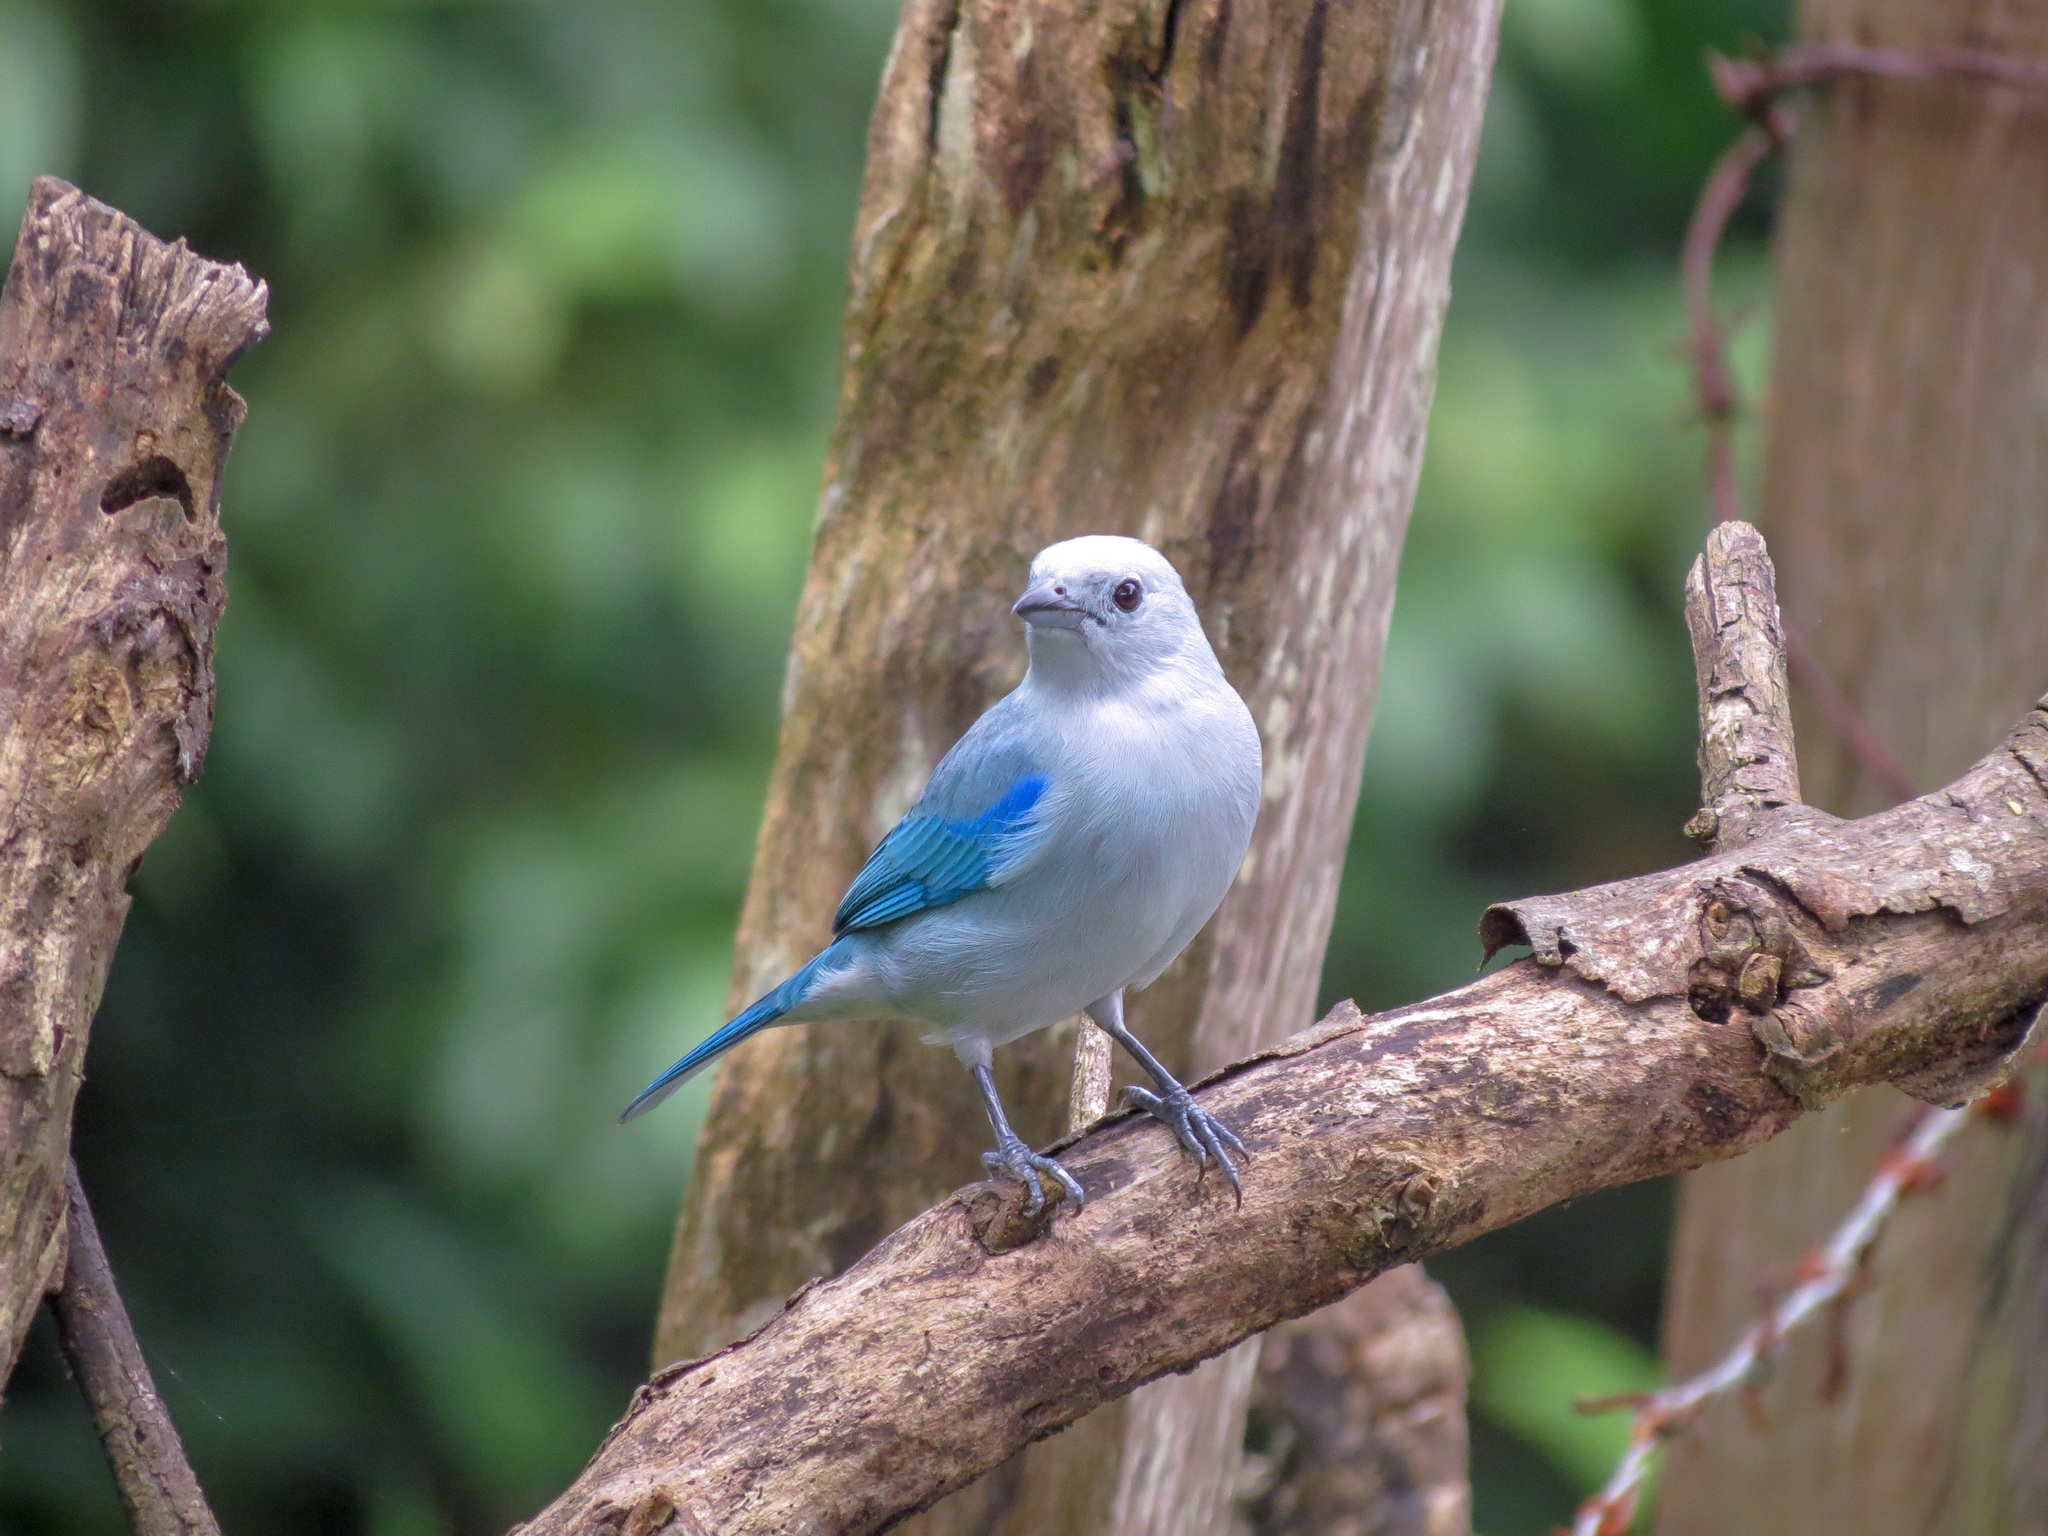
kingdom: Animalia
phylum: Chordata
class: Aves
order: Passeriformes
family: Thraupidae
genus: Thraupis
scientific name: Thraupis episcopus
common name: Blue-grey tanager
